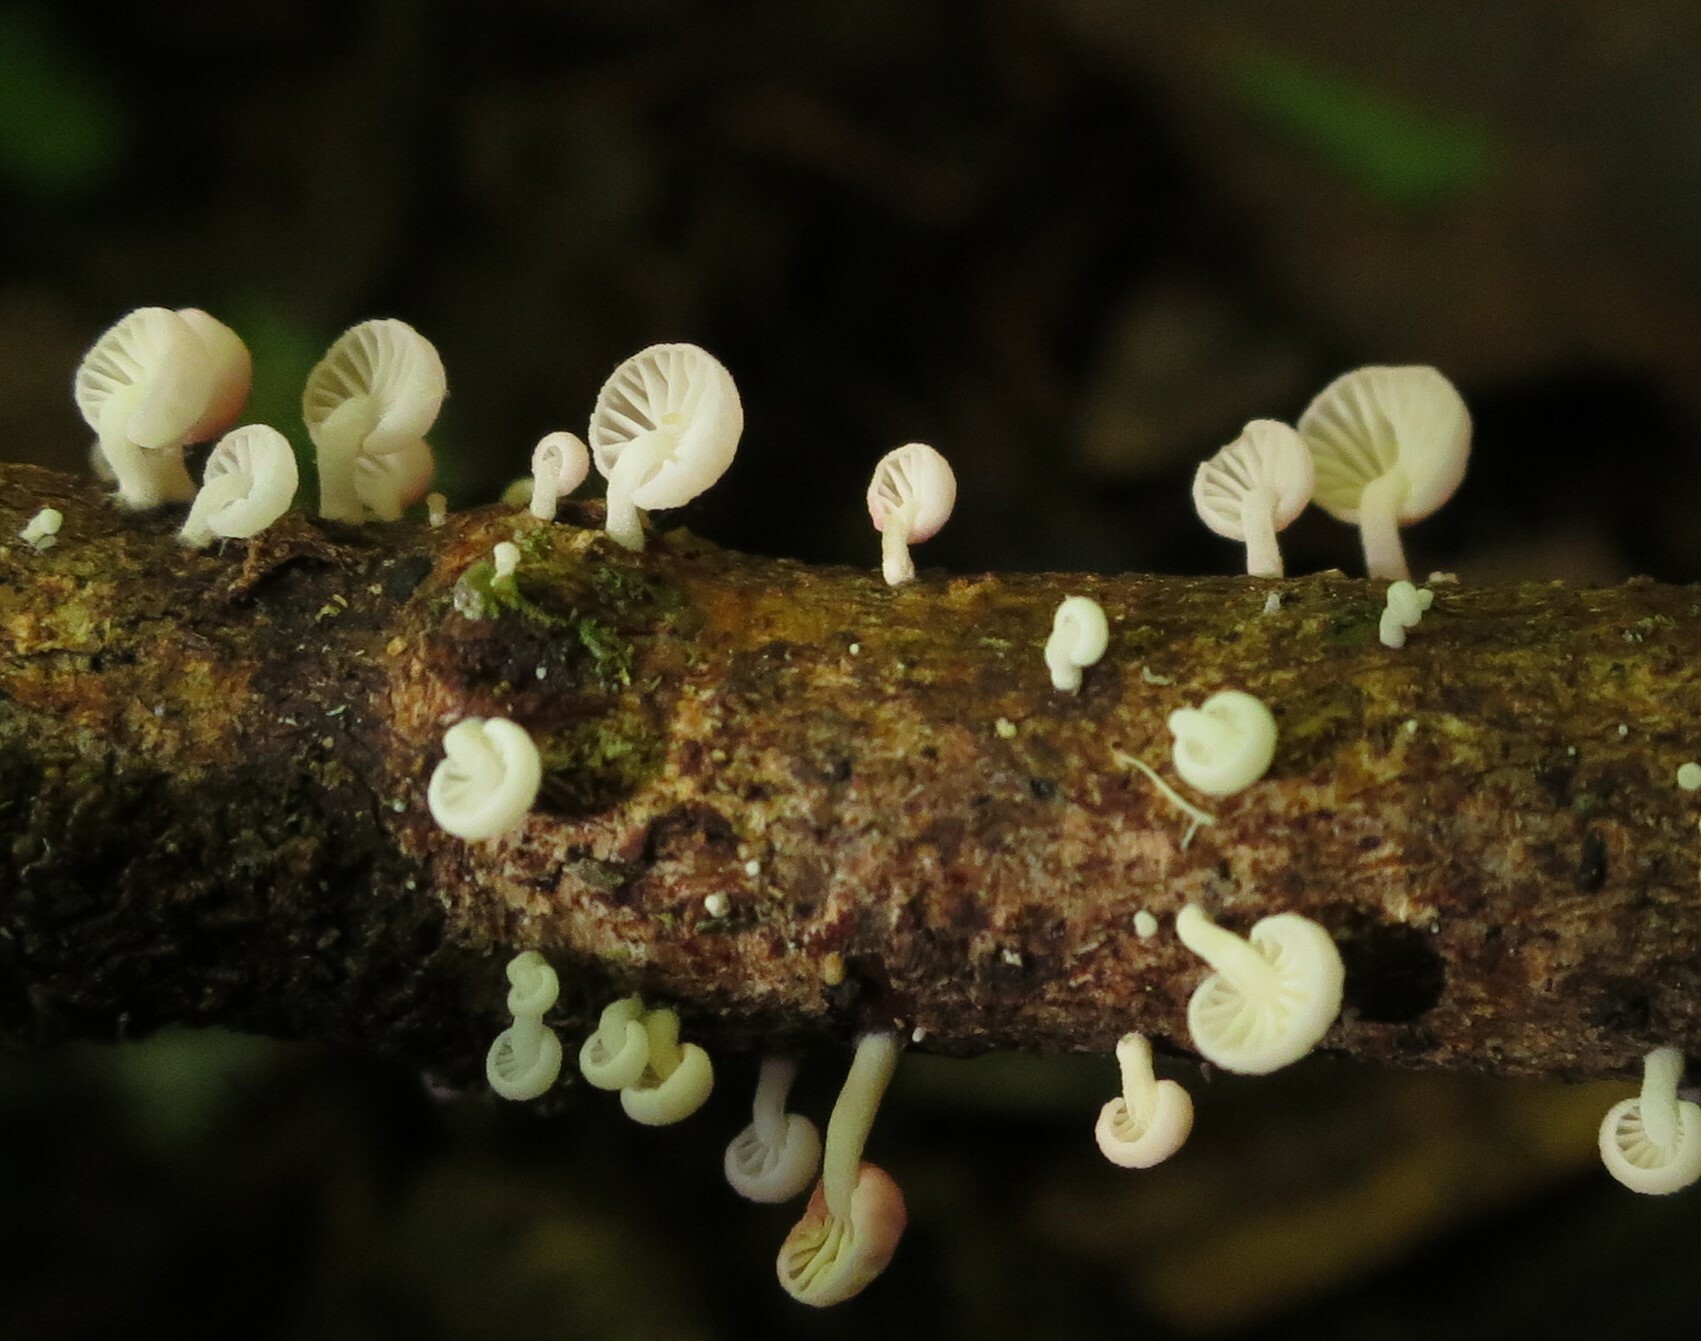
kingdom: Fungi
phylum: Basidiomycota
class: Agaricomycetes
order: Agaricales
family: Mycenaceae
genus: Mycena
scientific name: Mycena roseoflava
